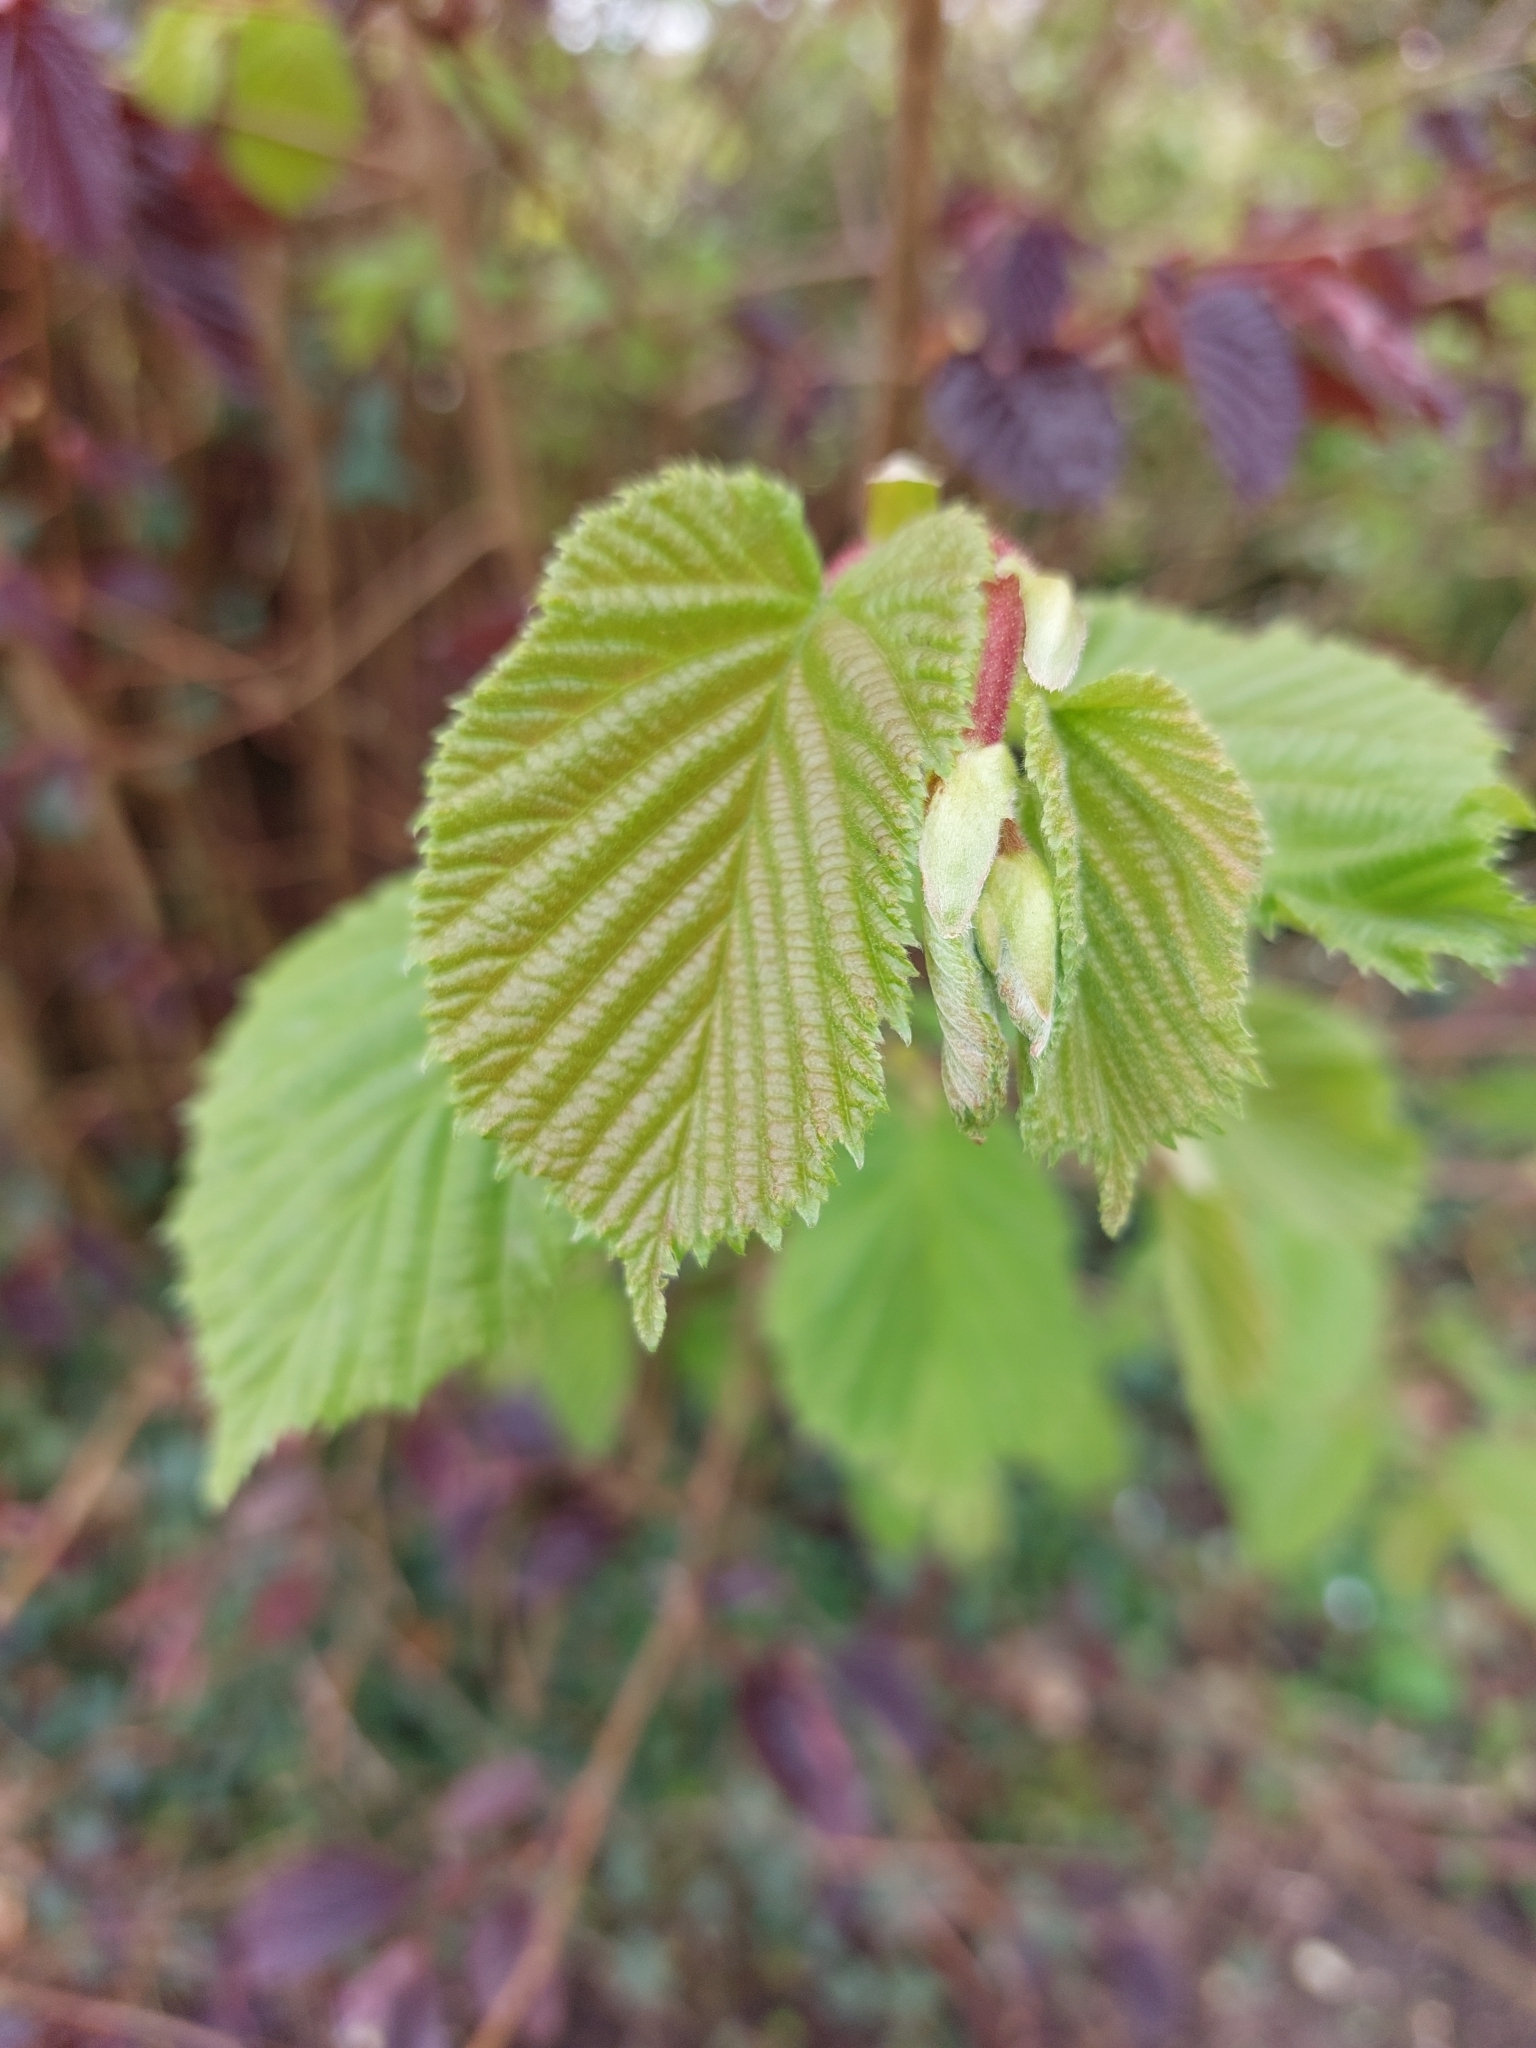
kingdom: Plantae
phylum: Tracheophyta
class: Magnoliopsida
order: Fagales
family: Betulaceae
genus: Corylus
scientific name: Corylus avellana
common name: European hazel
